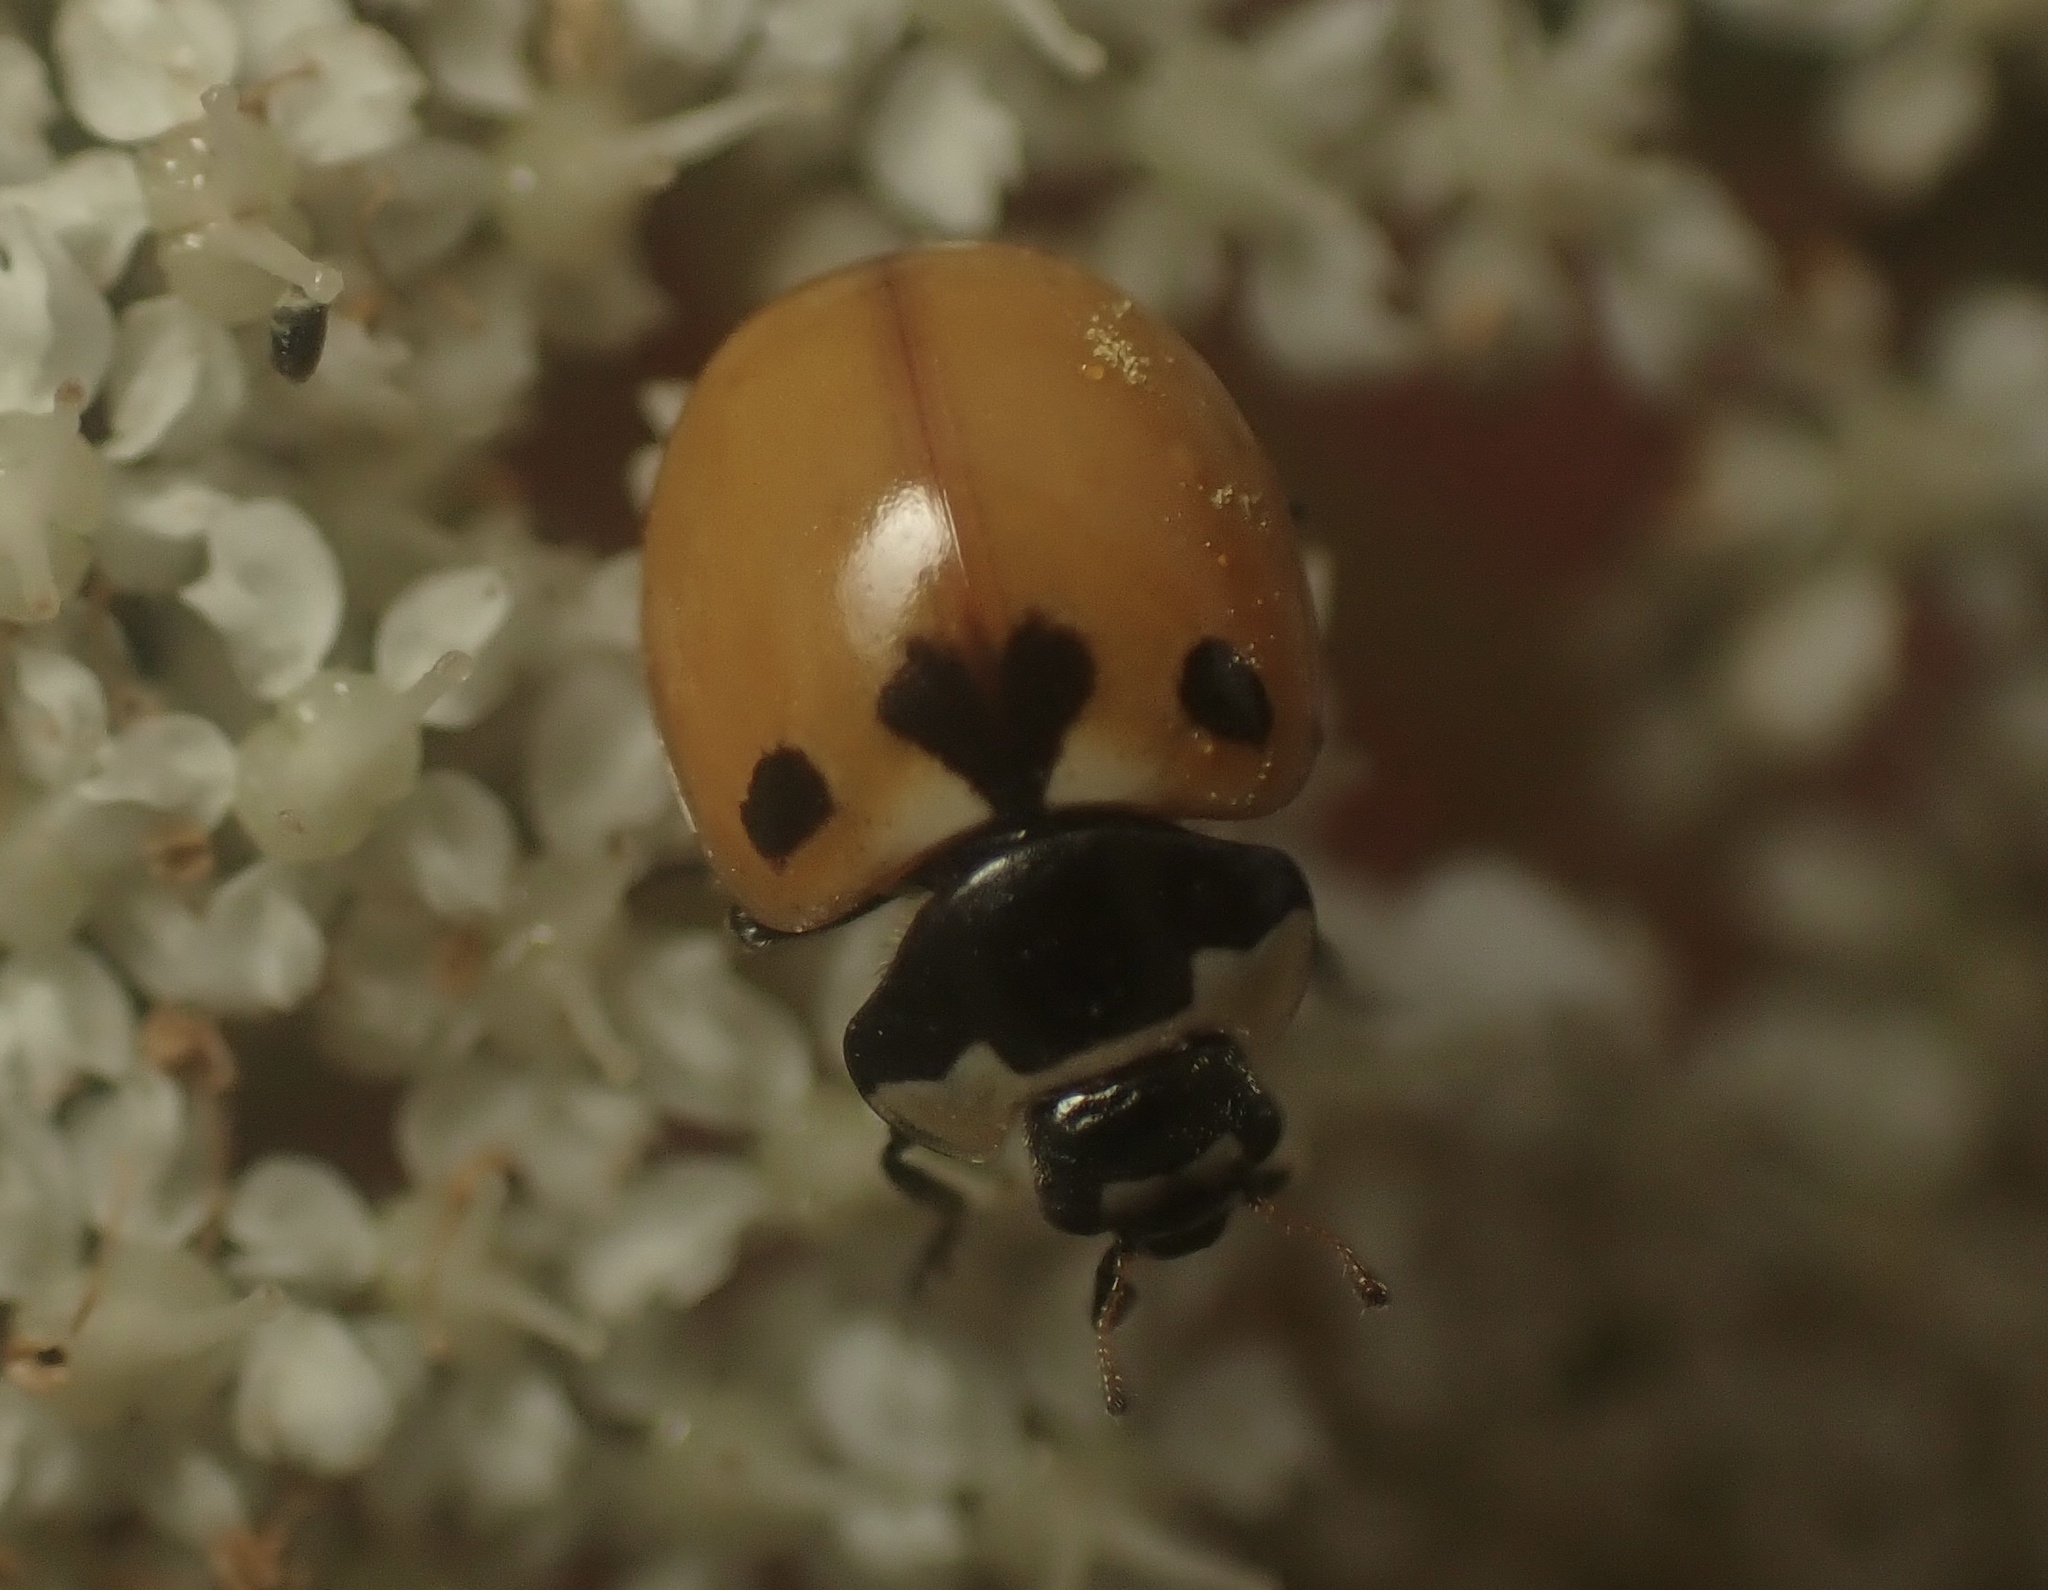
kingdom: Animalia
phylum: Arthropoda
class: Insecta
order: Coleoptera
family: Coccinellidae
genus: Coccinella
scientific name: Coccinella trifasciata
